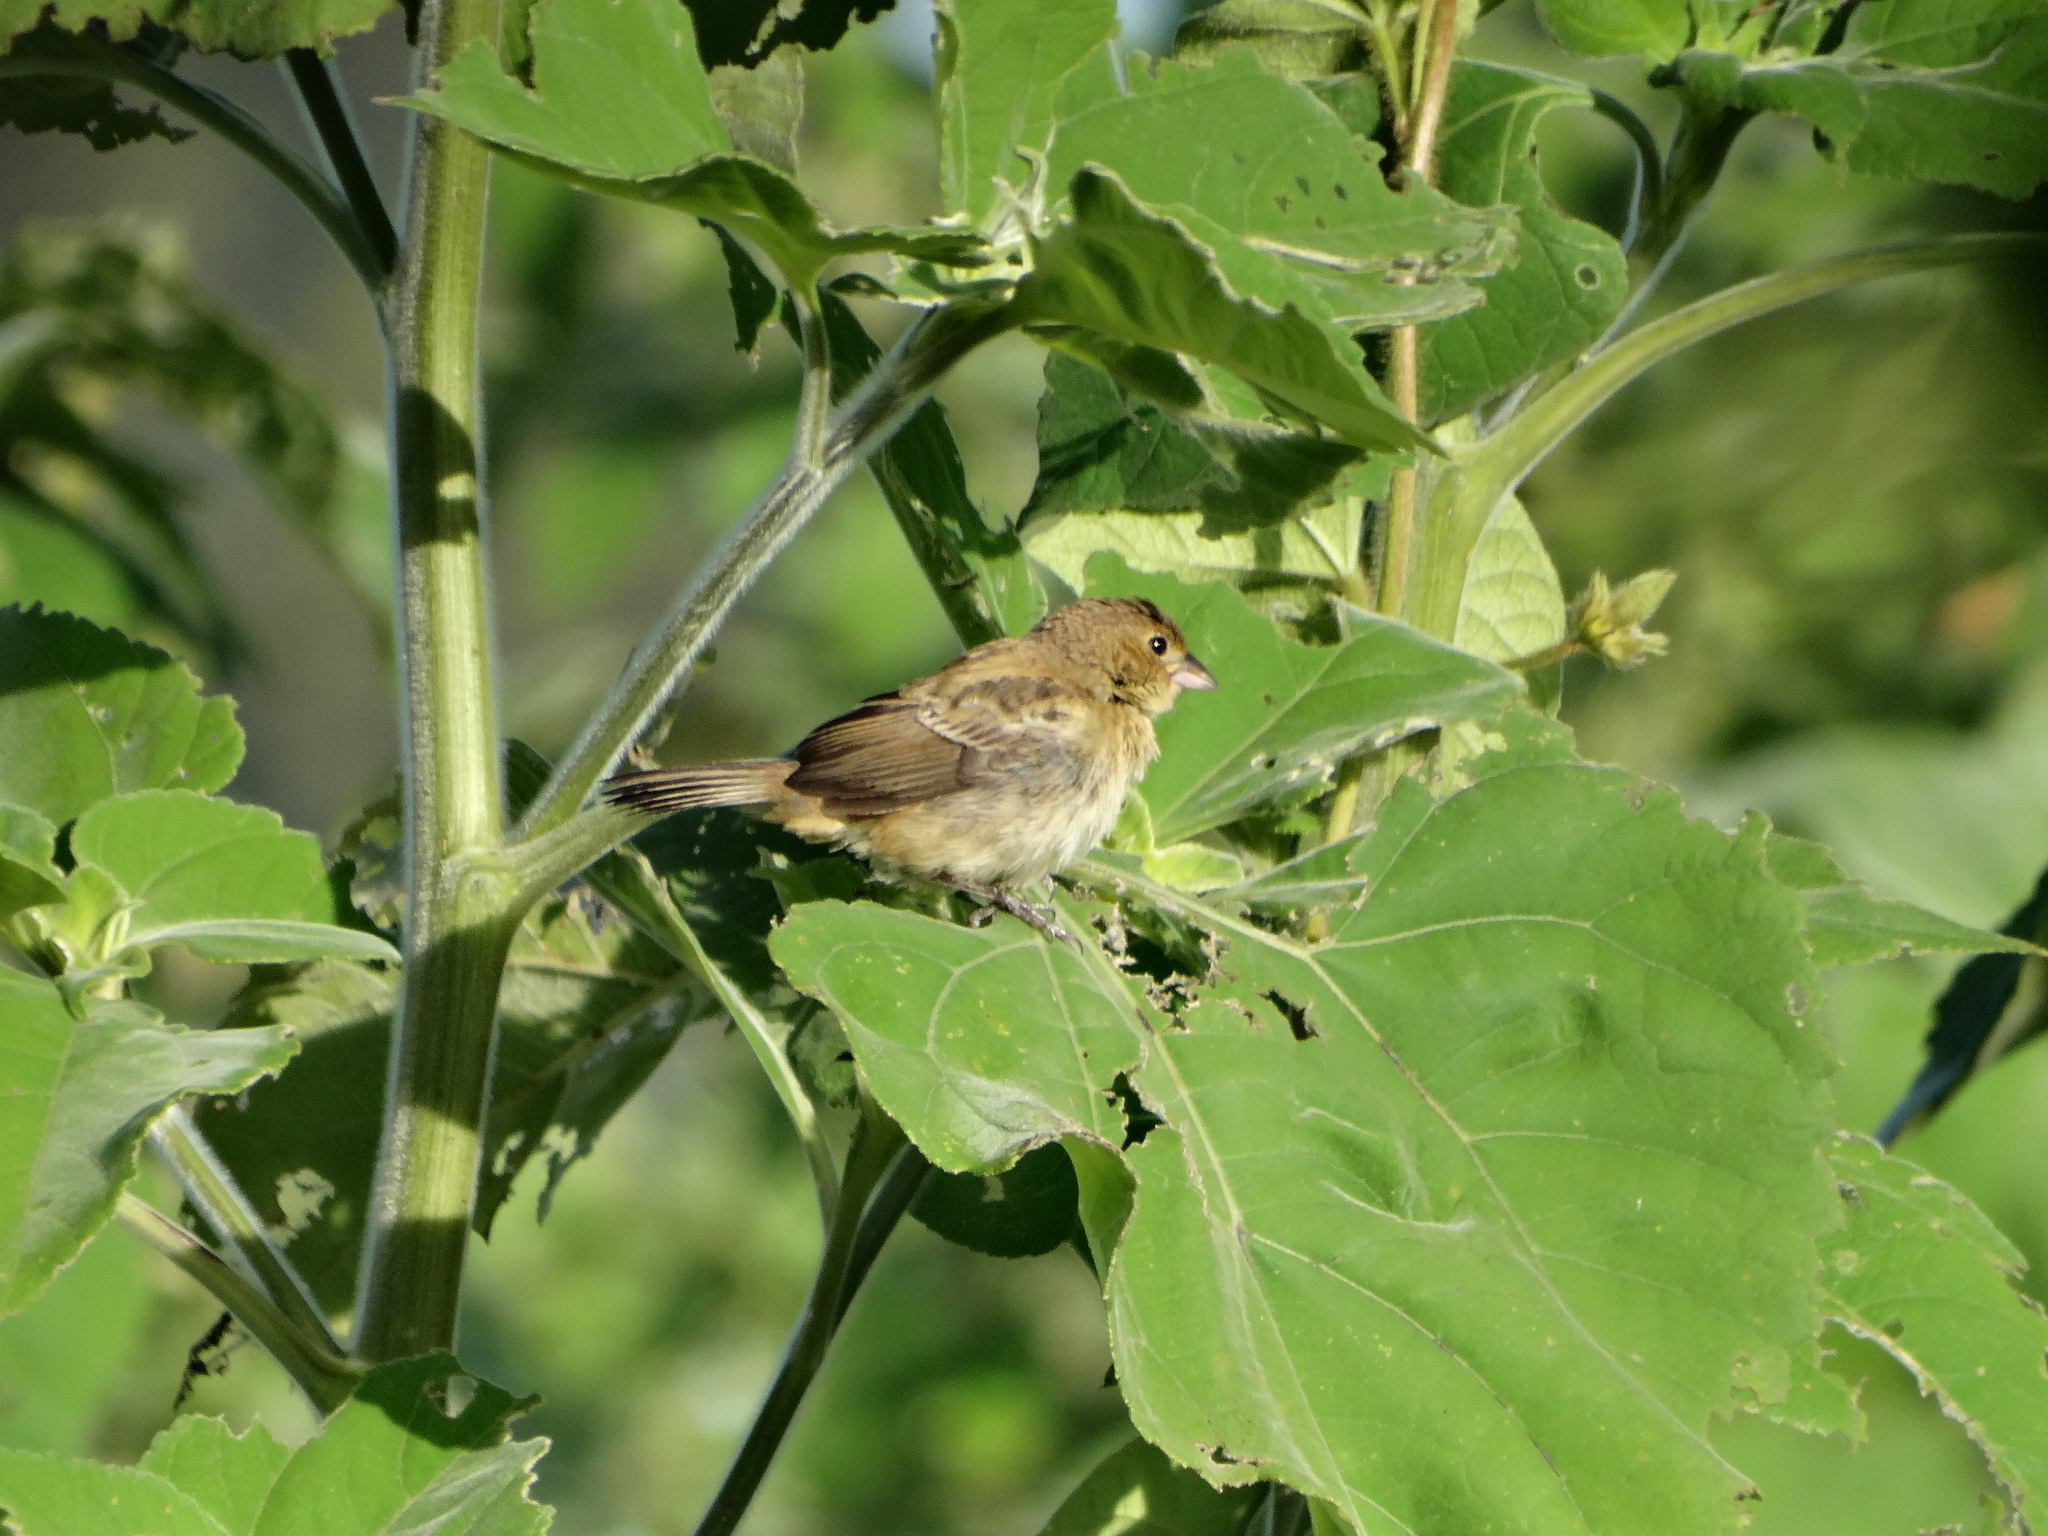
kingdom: Animalia
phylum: Chordata
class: Aves
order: Passeriformes
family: Thraupidae
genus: Volatinia
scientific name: Volatinia jacarina
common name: Blue-black grassquit
